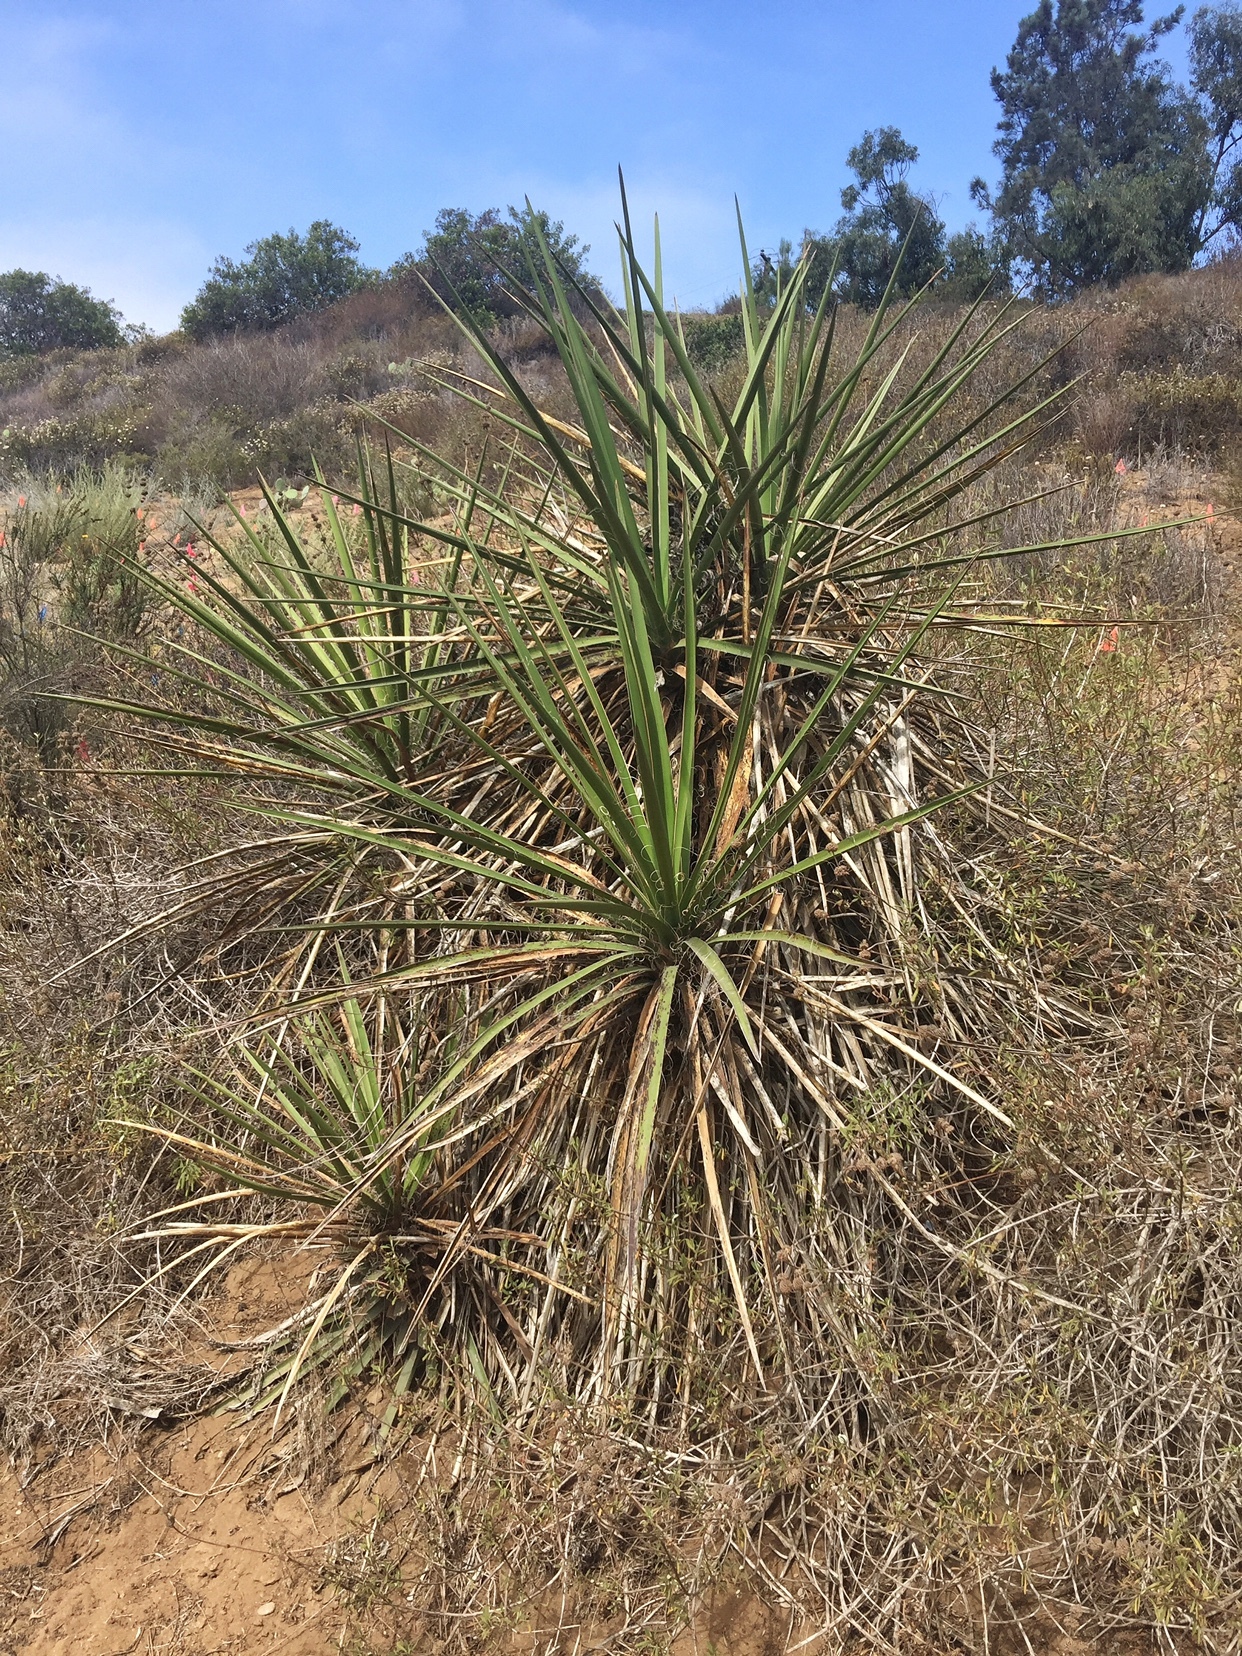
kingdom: Plantae
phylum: Tracheophyta
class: Liliopsida
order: Asparagales
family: Asparagaceae
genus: Yucca
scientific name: Yucca schidigera
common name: Mojave yucca
